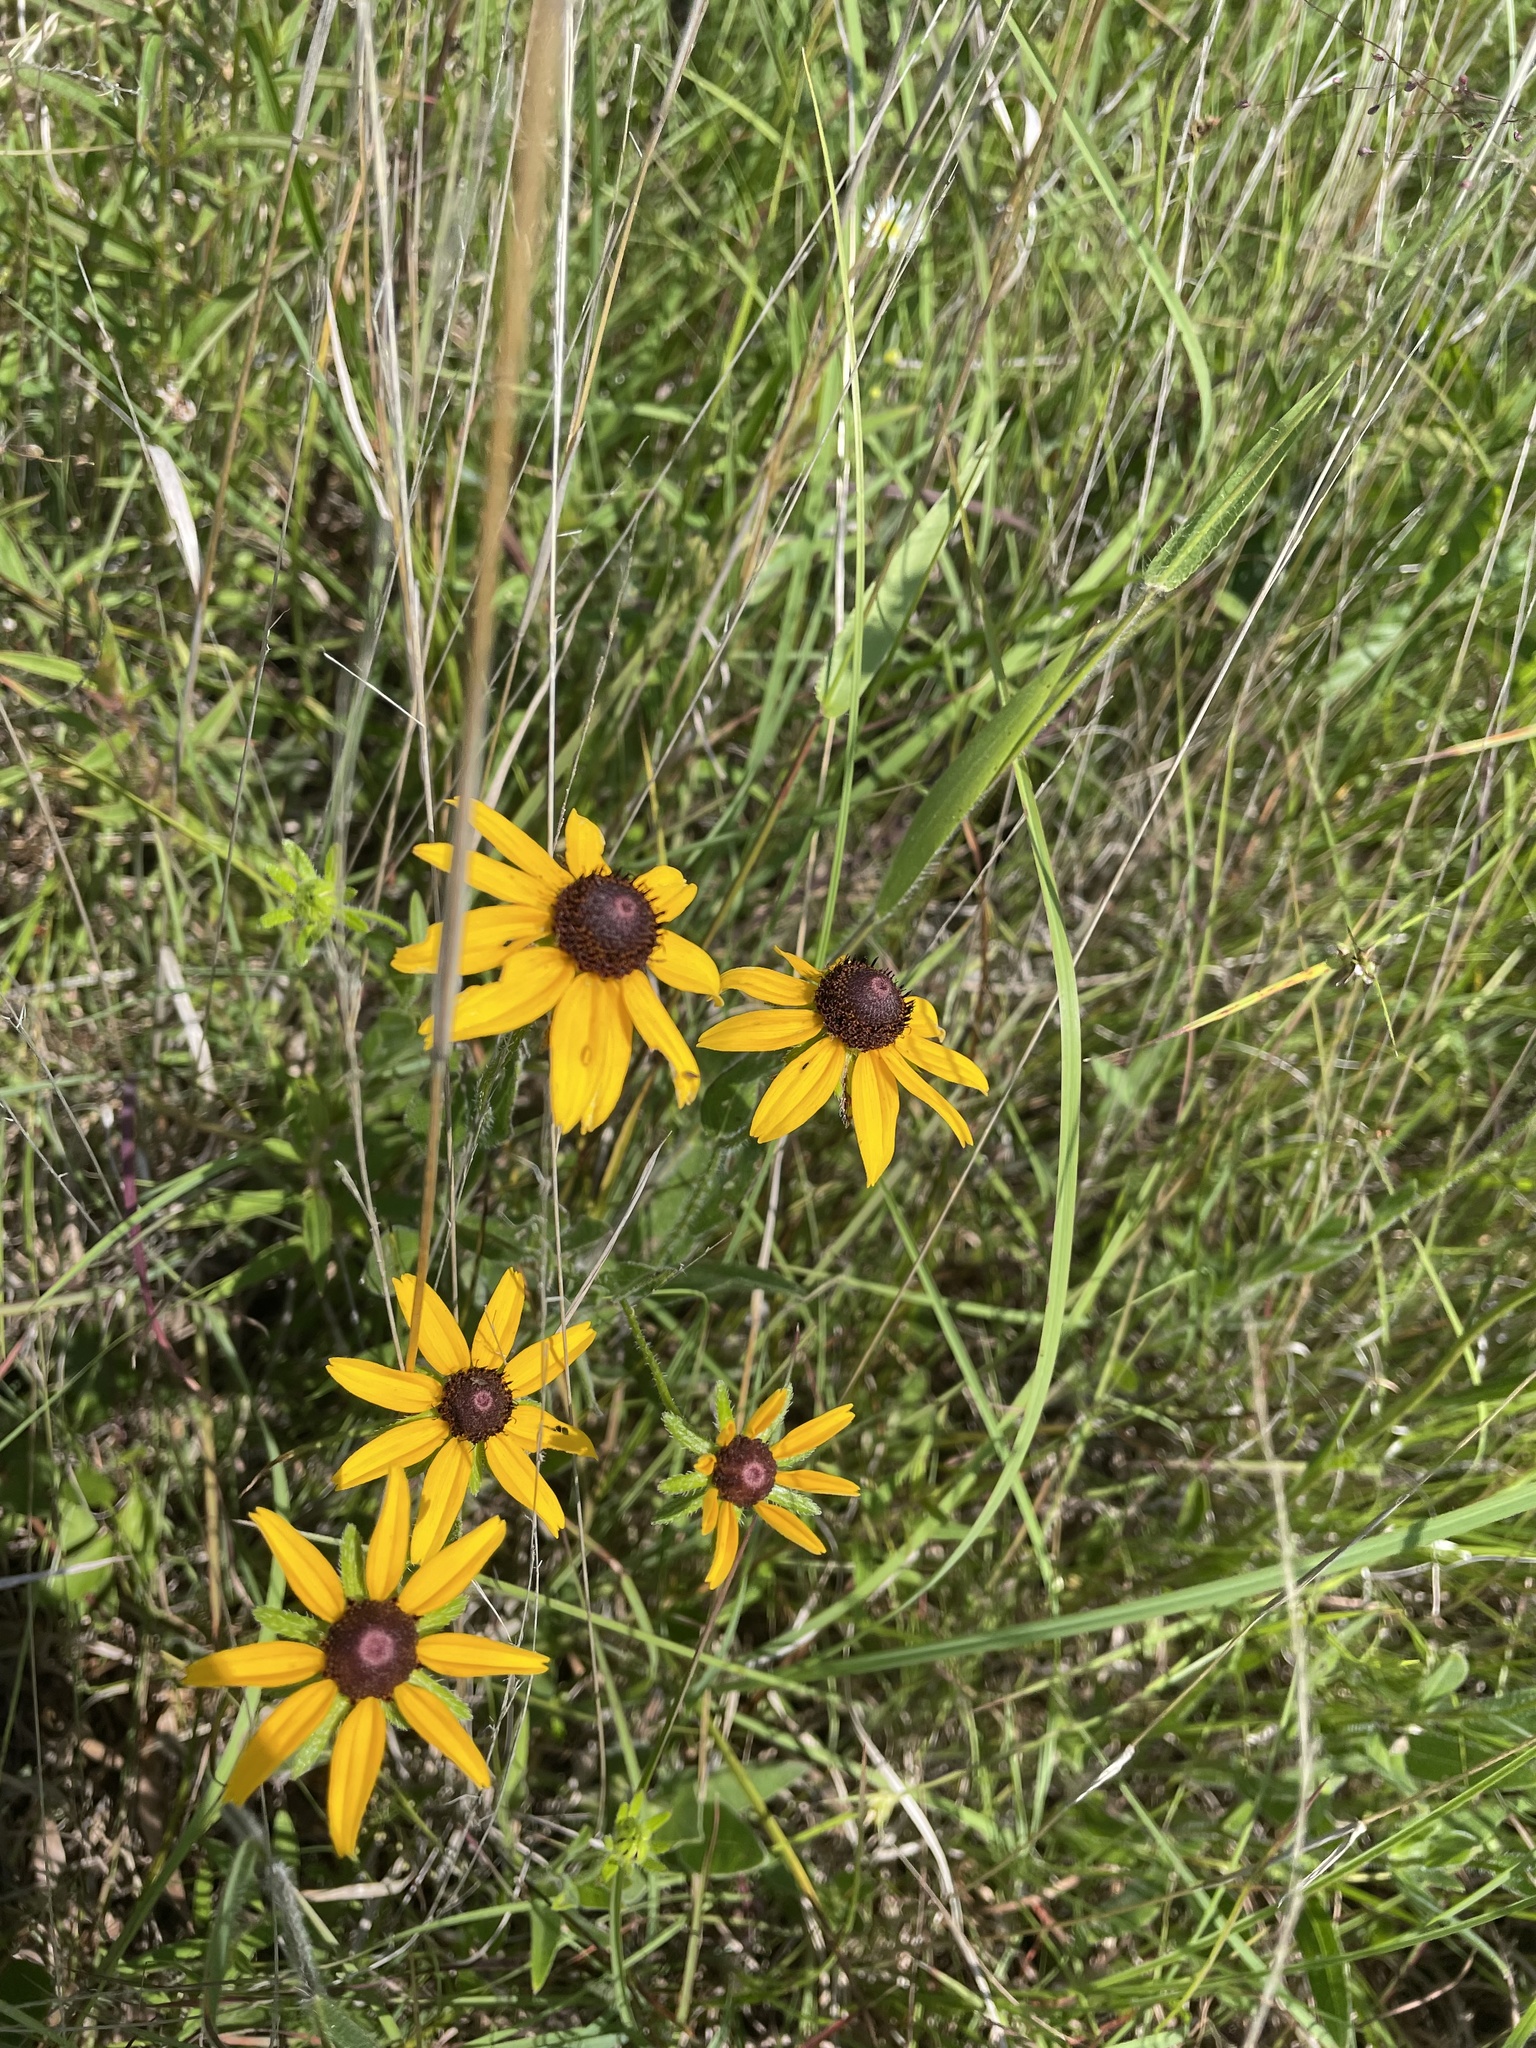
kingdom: Plantae
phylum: Tracheophyta
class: Magnoliopsida
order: Asterales
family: Asteraceae
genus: Rudbeckia
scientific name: Rudbeckia hirta
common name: Black-eyed-susan
